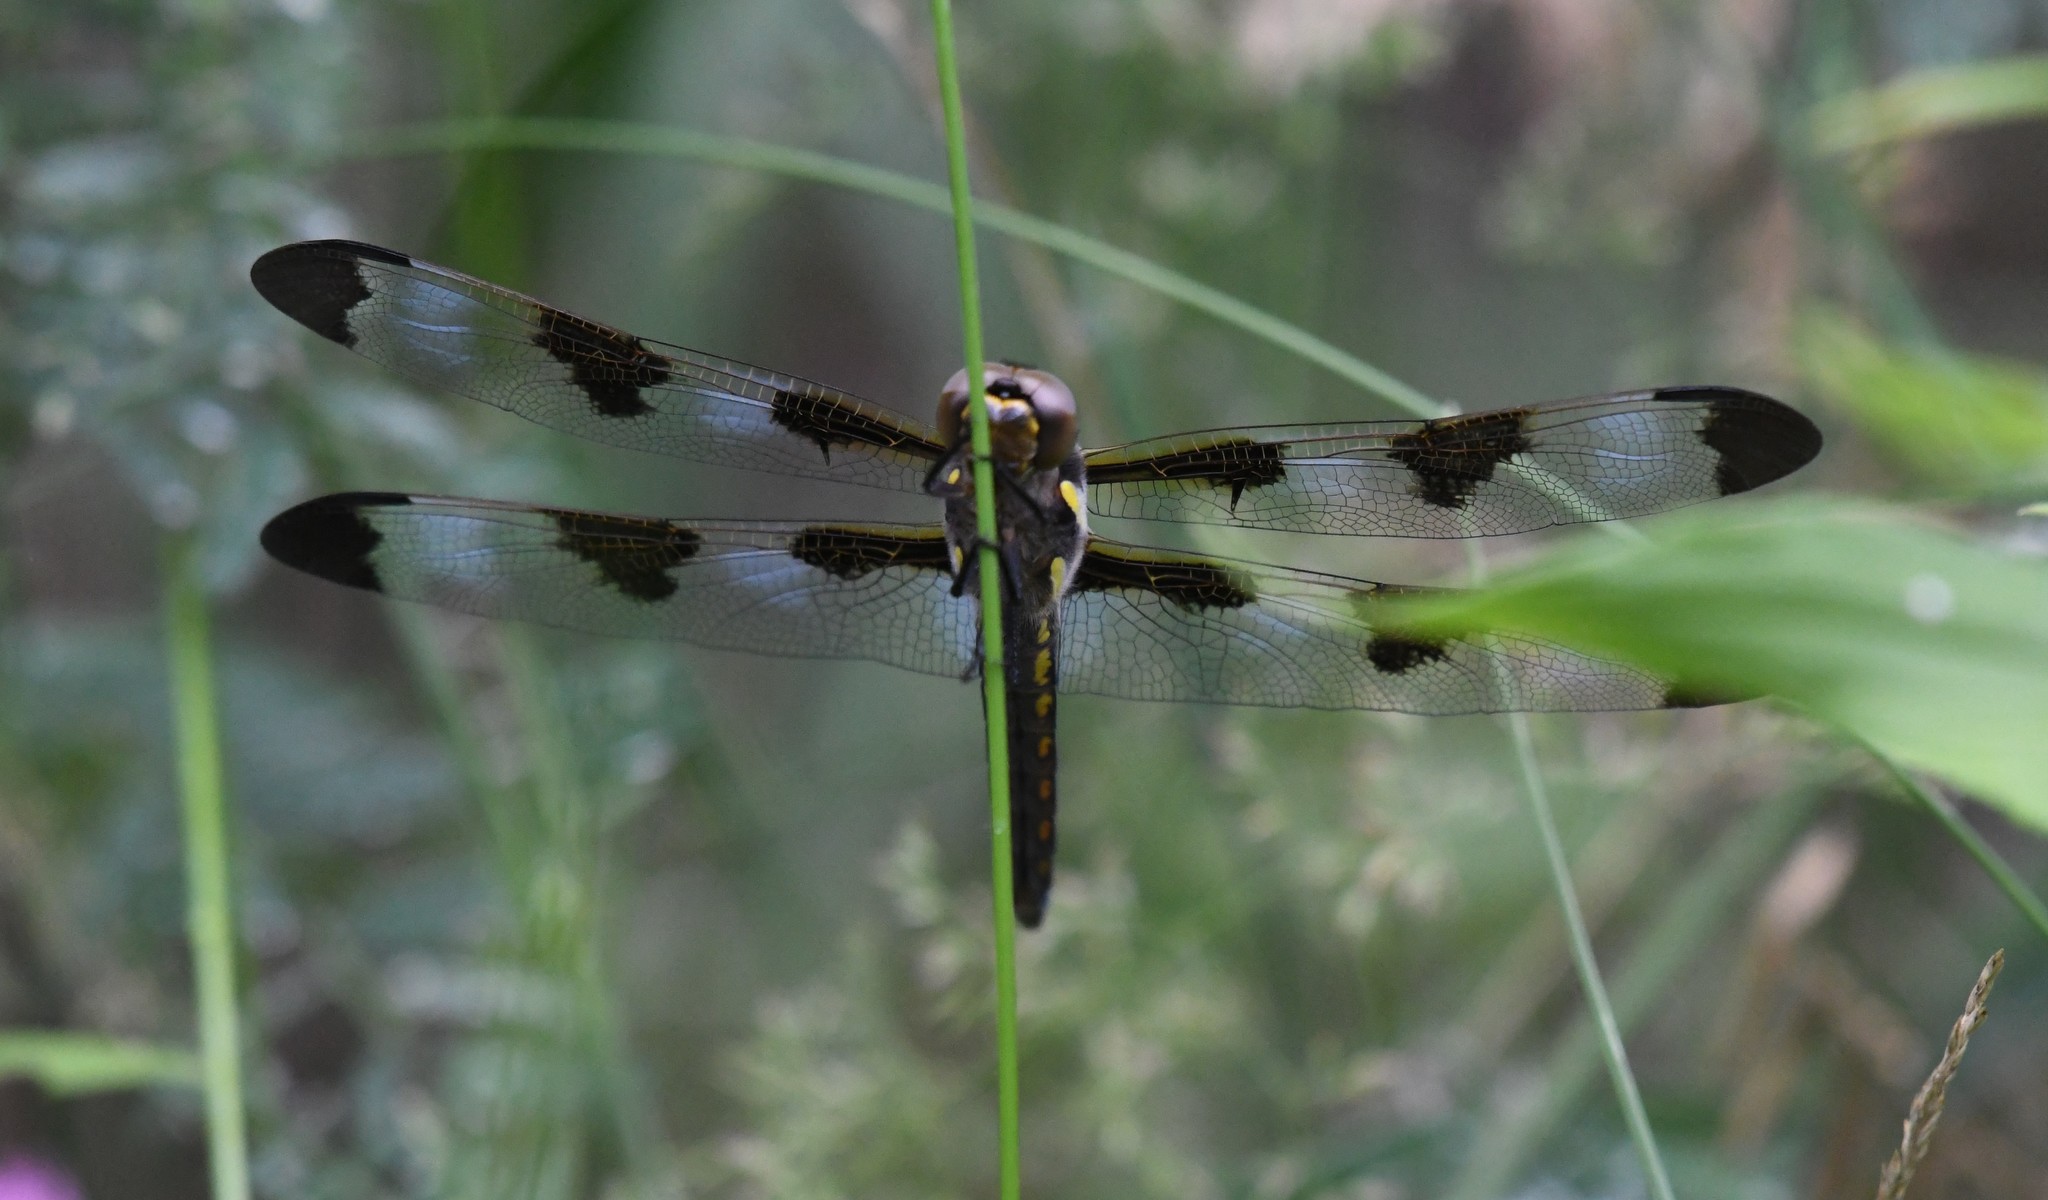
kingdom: Animalia
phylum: Arthropoda
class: Insecta
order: Odonata
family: Libellulidae
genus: Libellula
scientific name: Libellula pulchella
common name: Twelve-spotted skimmer
